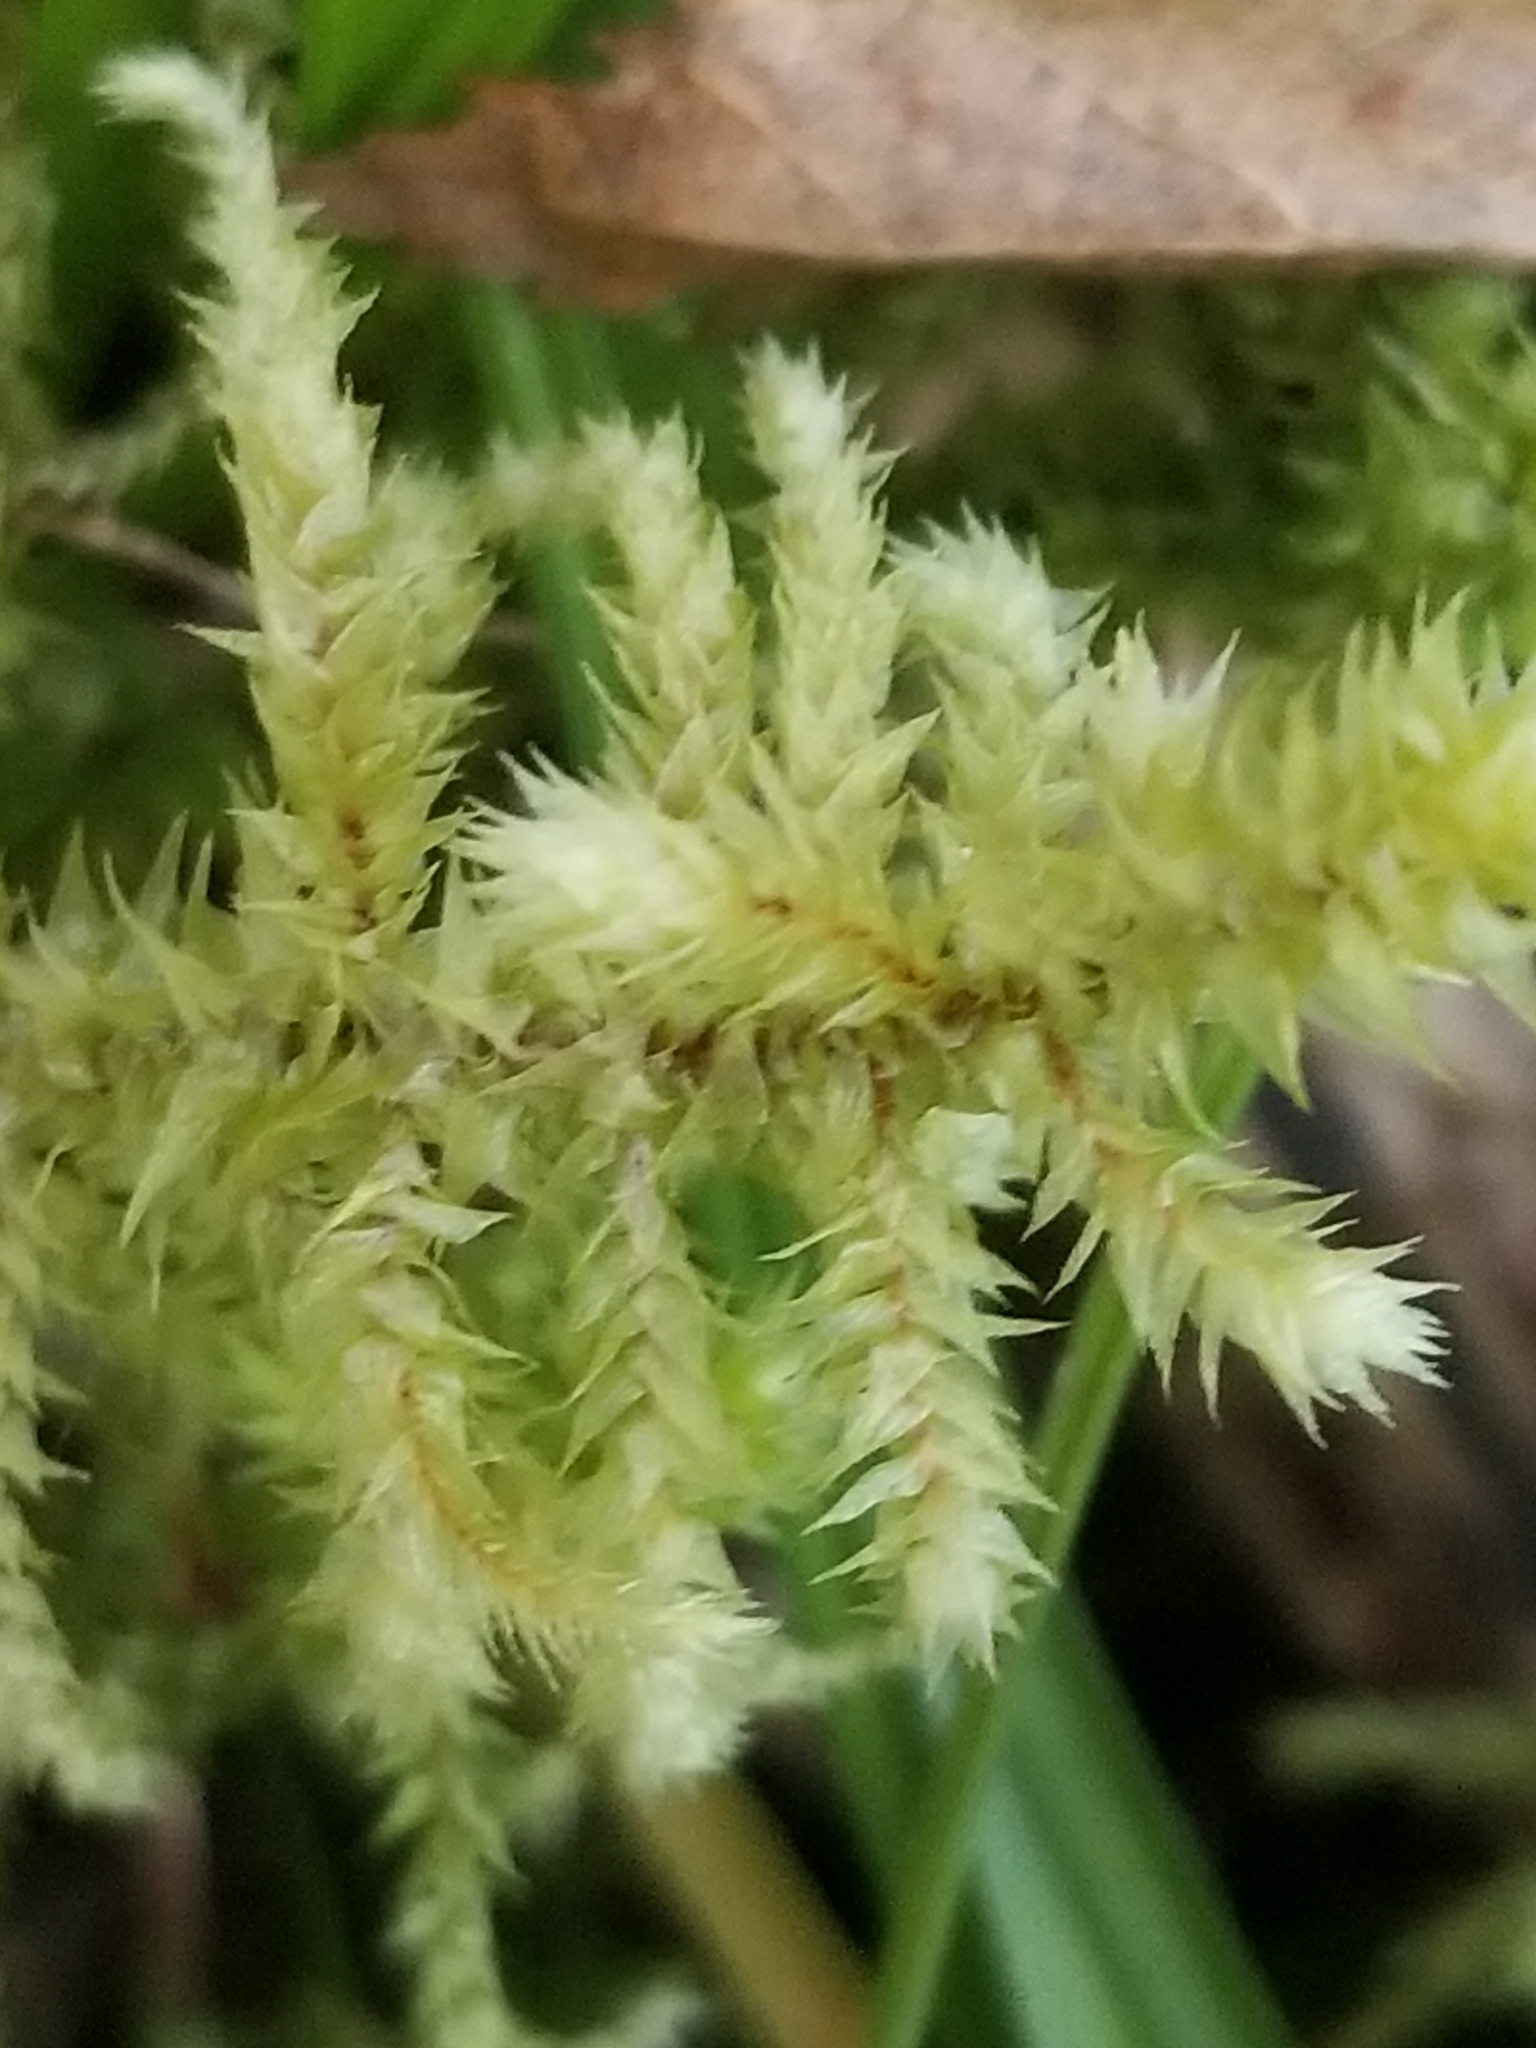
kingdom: Plantae
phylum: Bryophyta
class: Bryopsida
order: Hypnales
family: Hylocomiaceae
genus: Hylocomiadelphus
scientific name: Hylocomiadelphus triquetrus
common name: Rough goose neck moss
